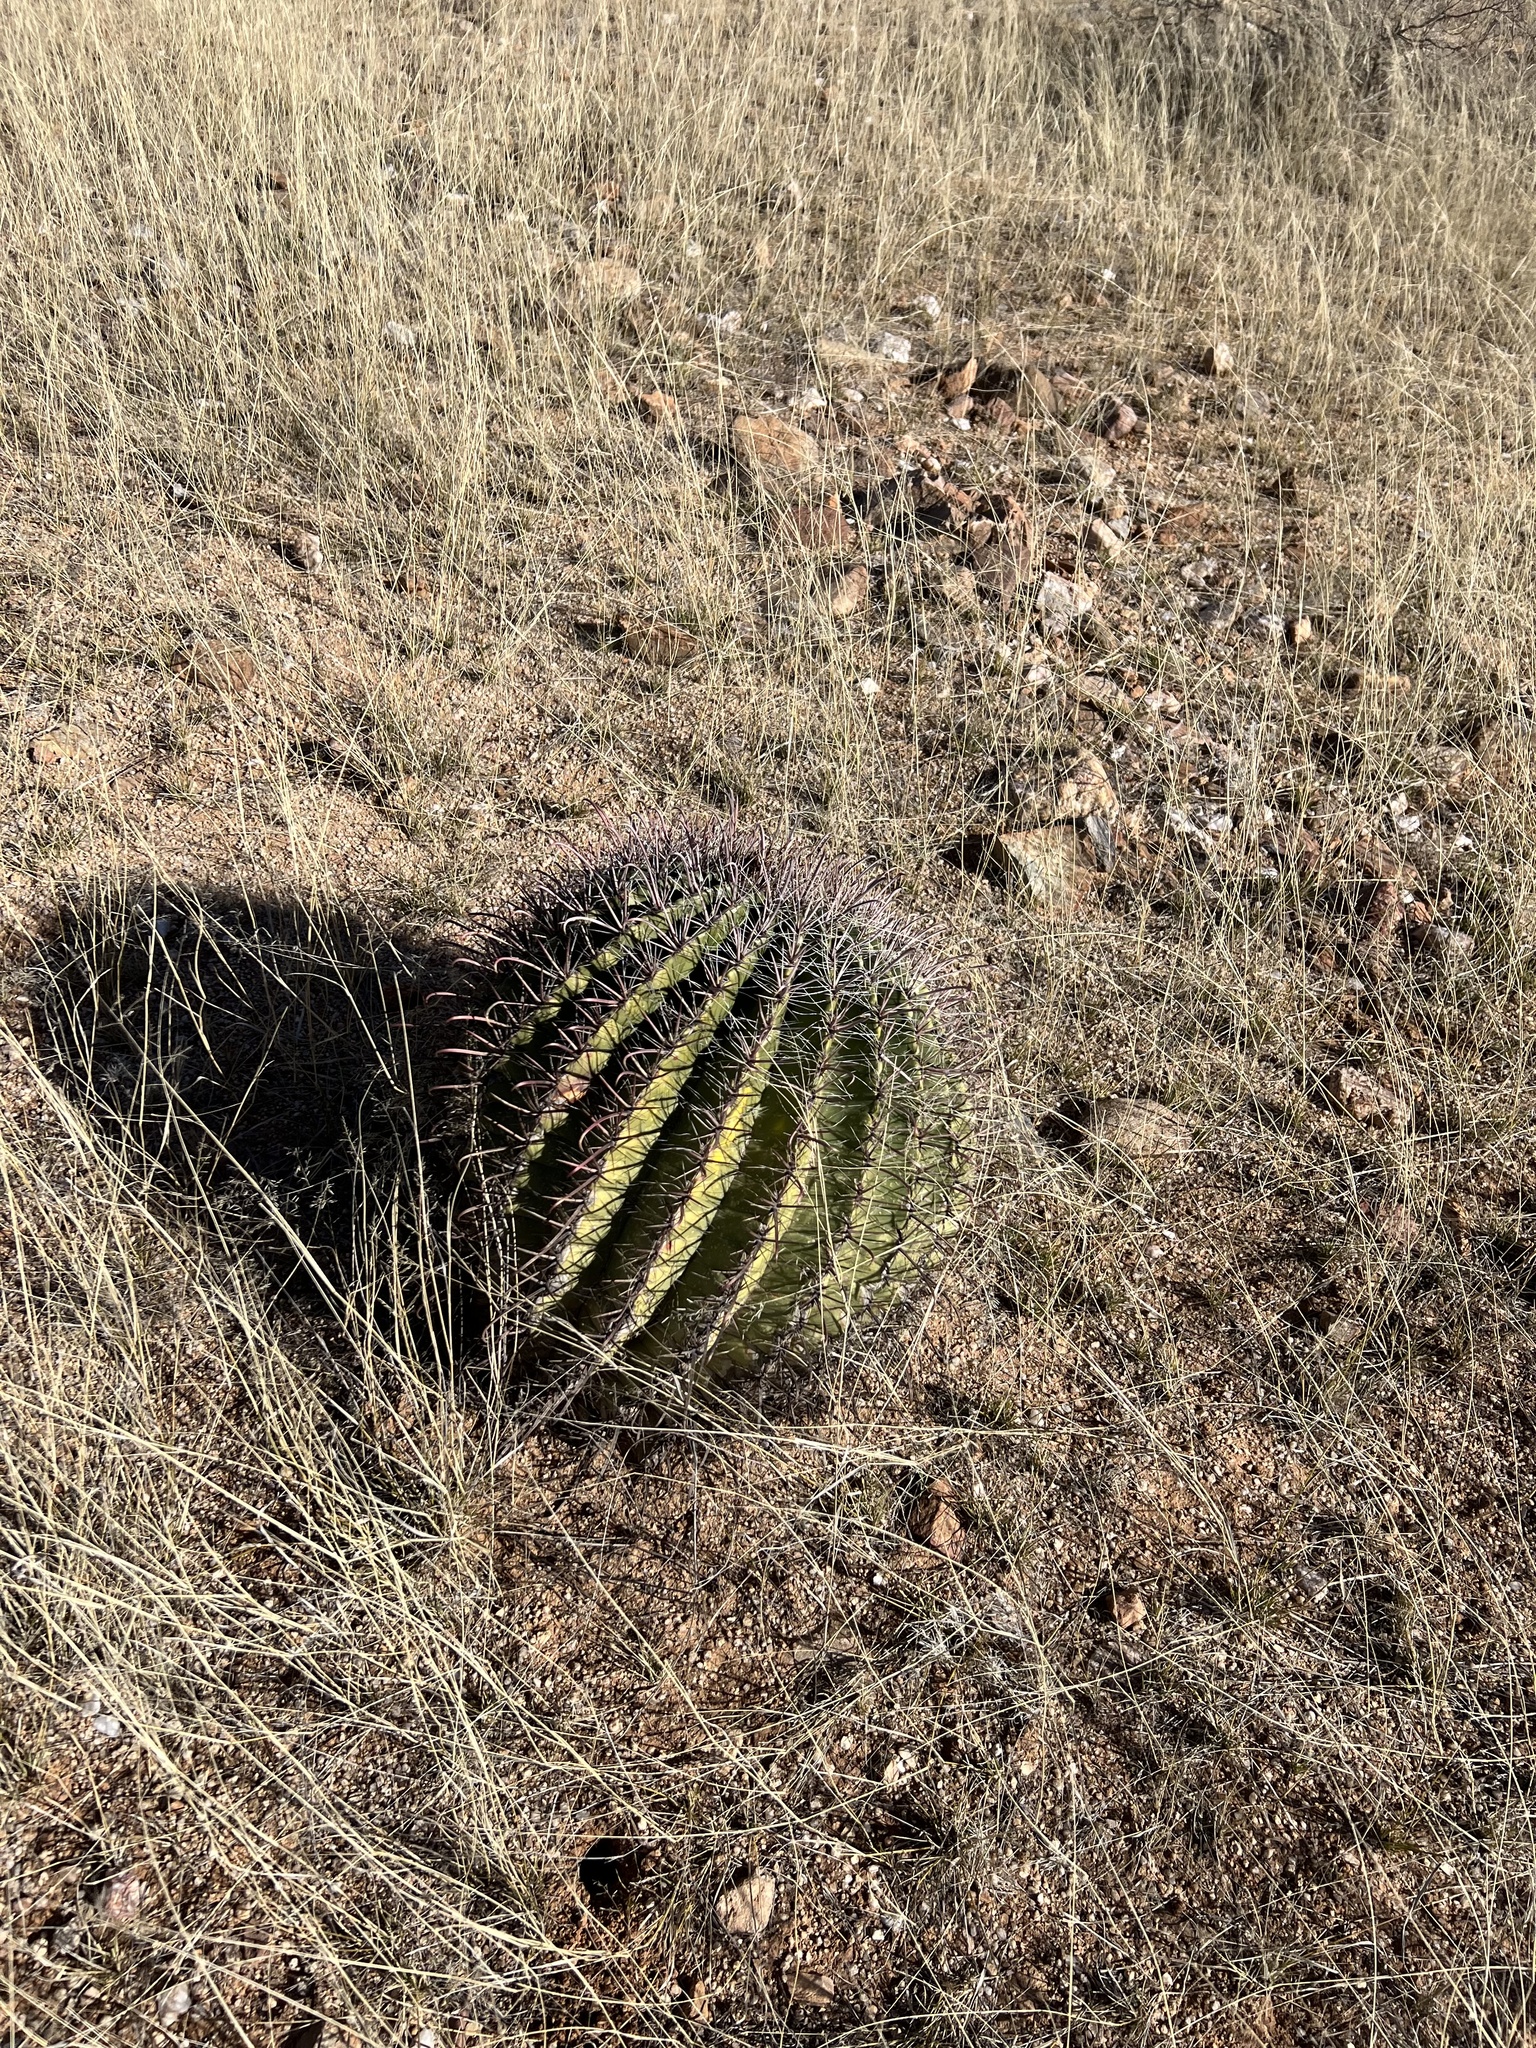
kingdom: Plantae
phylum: Tracheophyta
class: Magnoliopsida
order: Caryophyllales
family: Cactaceae
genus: Ferocactus
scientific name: Ferocactus wislizeni
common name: Candy barrel cactus
